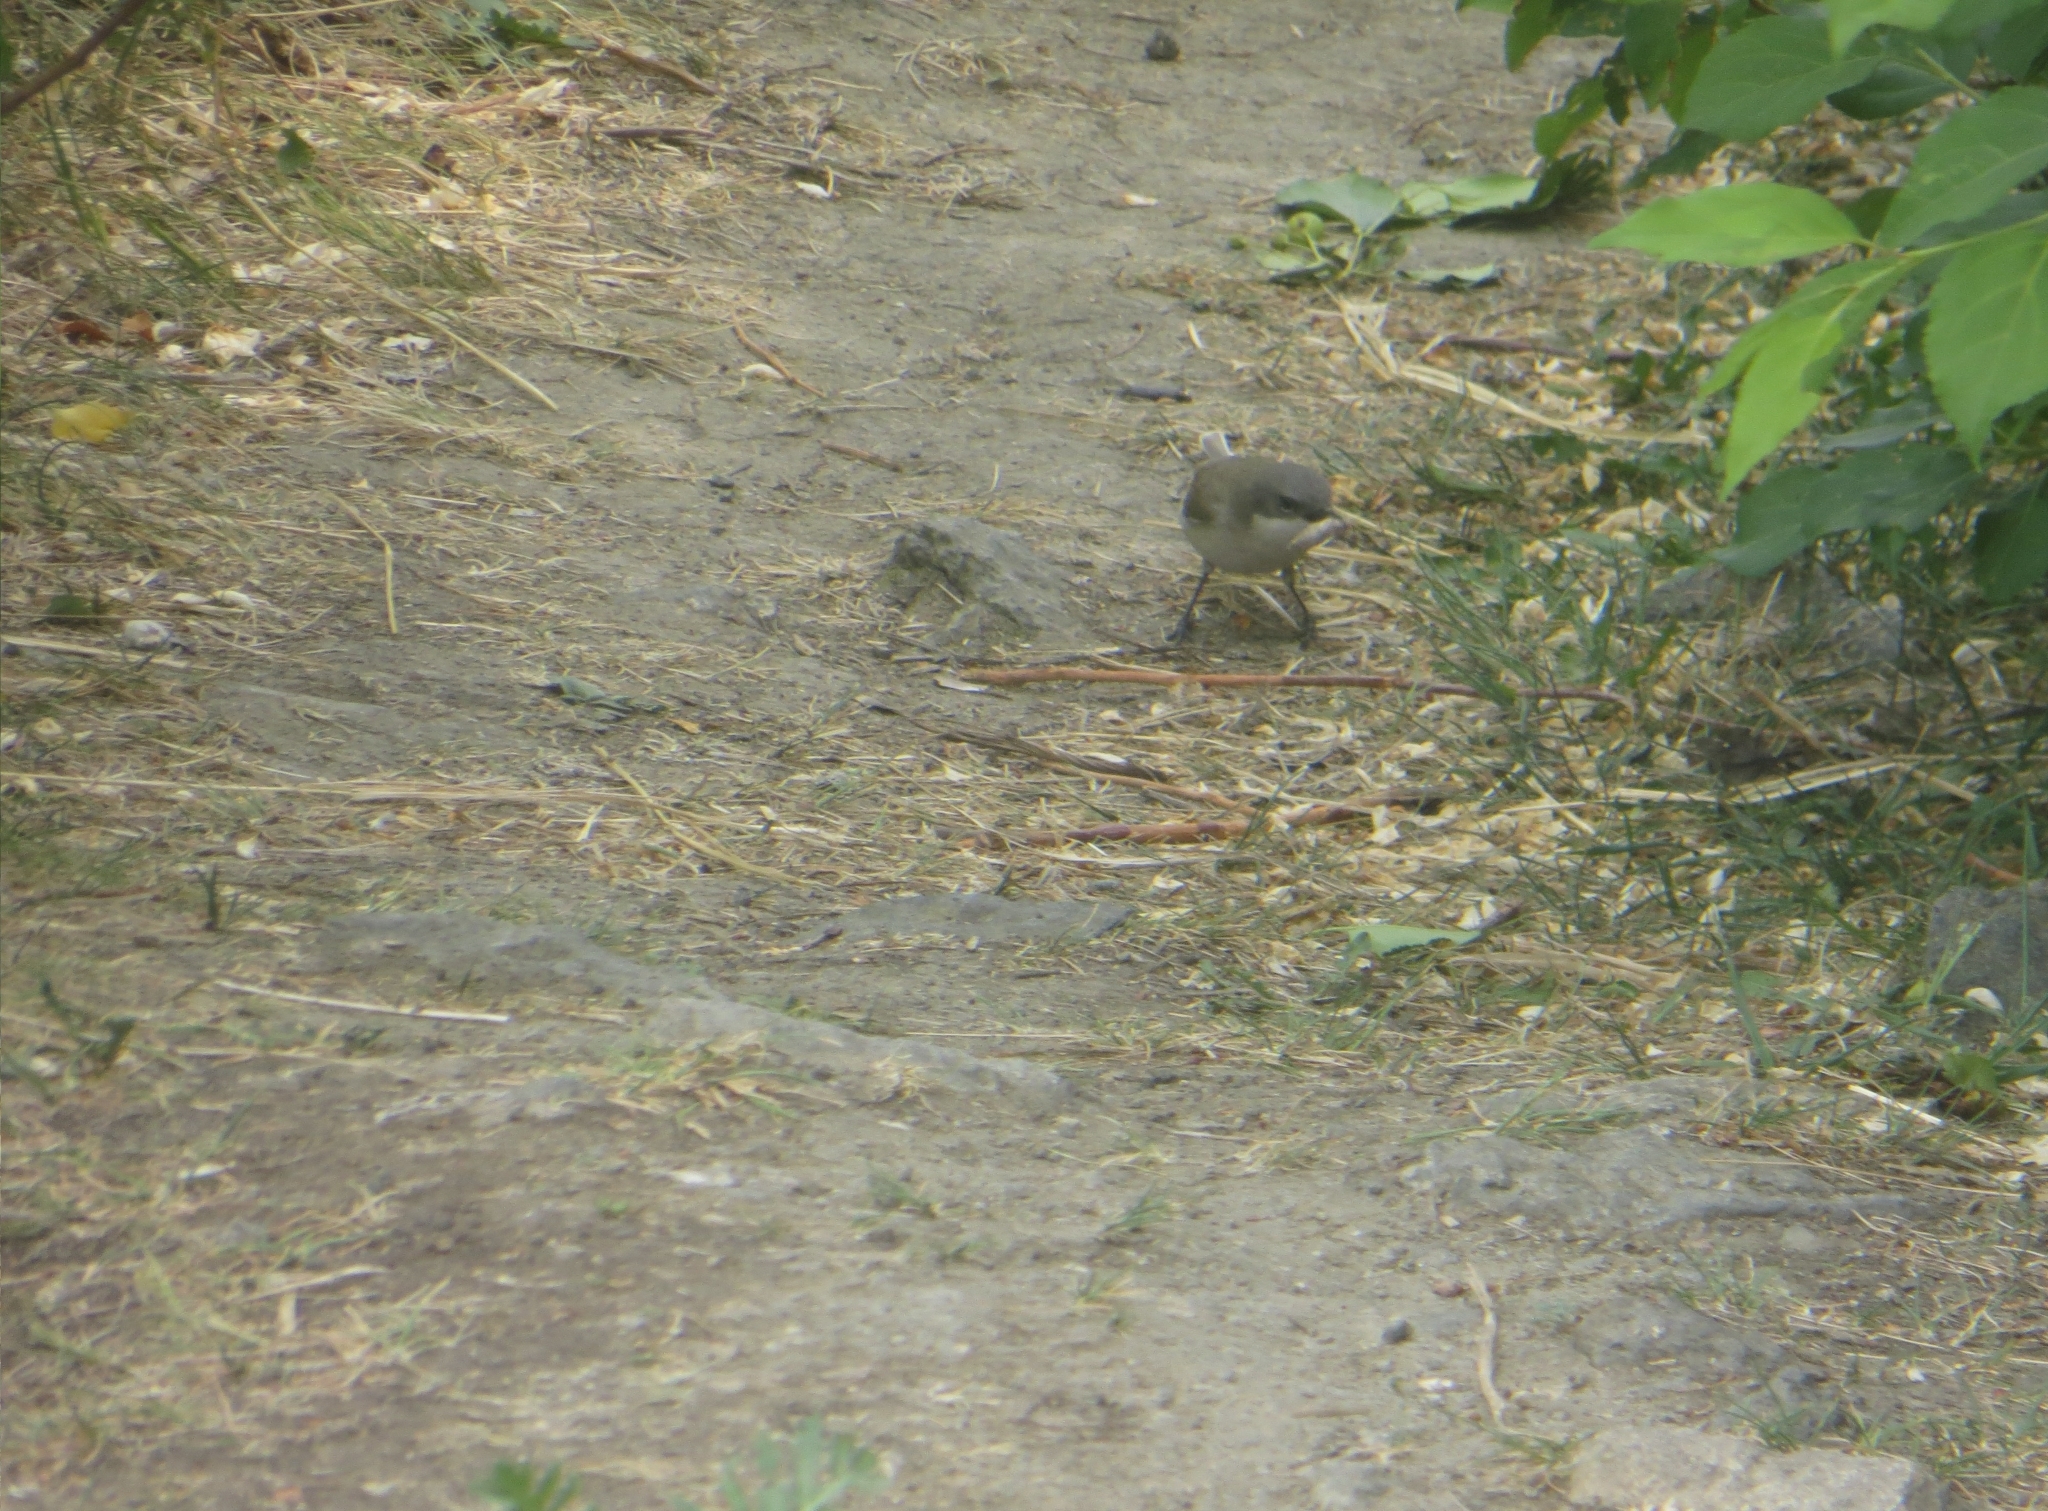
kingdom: Animalia
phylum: Chordata
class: Aves
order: Passeriformes
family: Sylviidae
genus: Sylvia
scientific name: Sylvia curruca
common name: Lesser whitethroat
